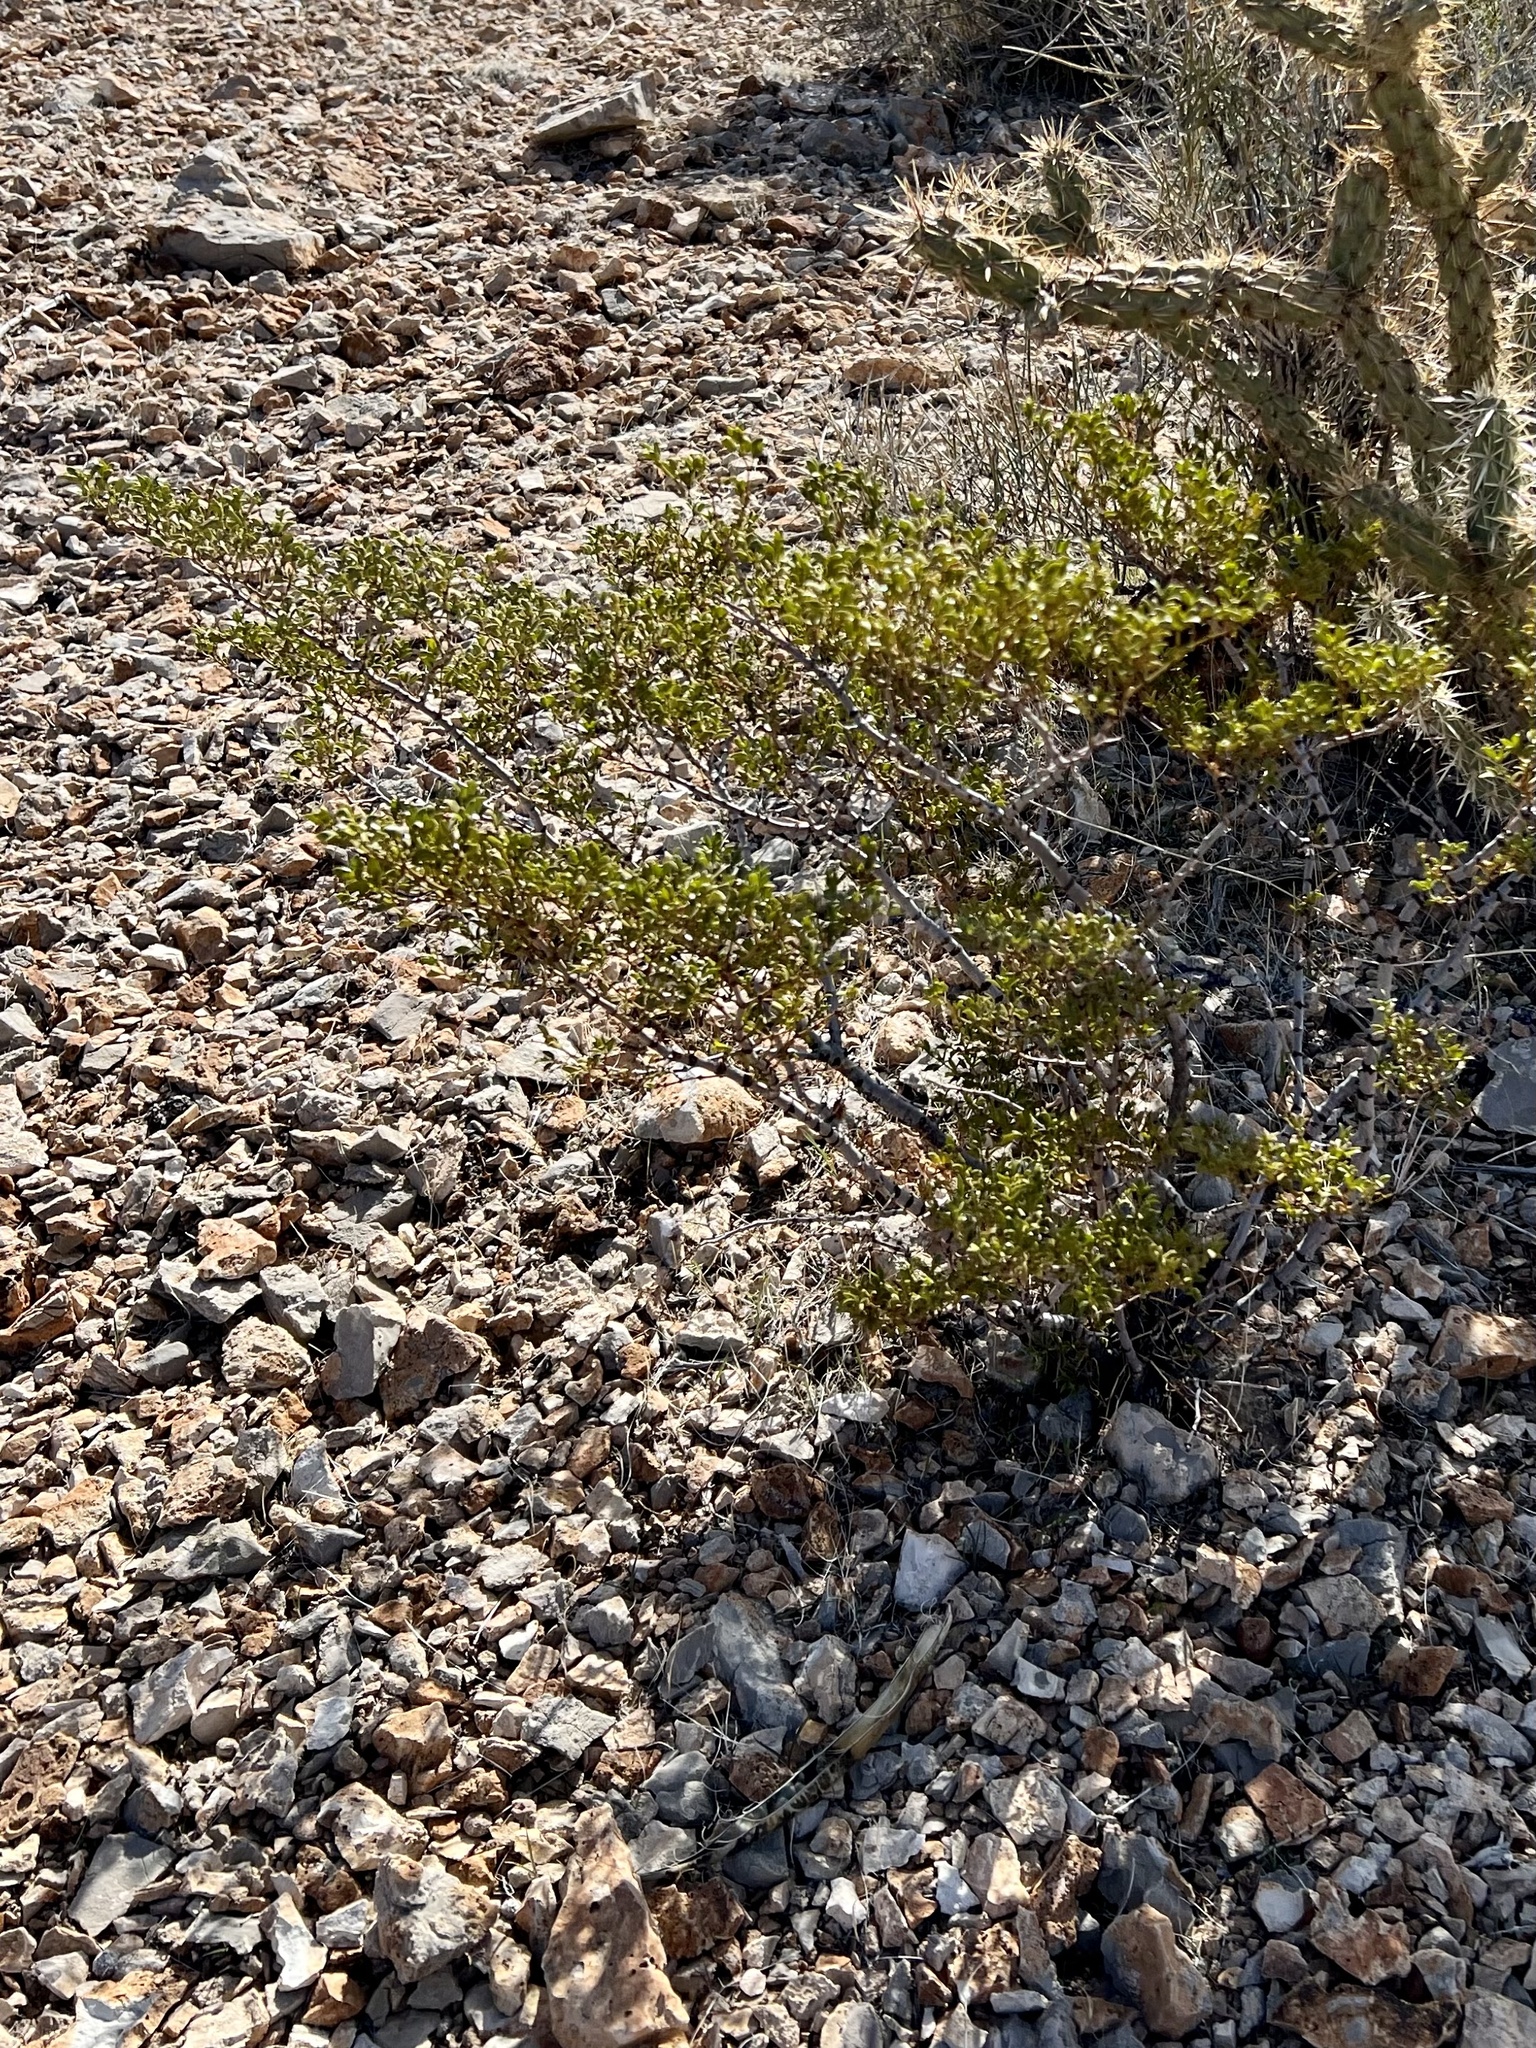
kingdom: Plantae
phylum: Tracheophyta
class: Magnoliopsida
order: Zygophyllales
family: Zygophyllaceae
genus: Larrea
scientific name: Larrea tridentata
